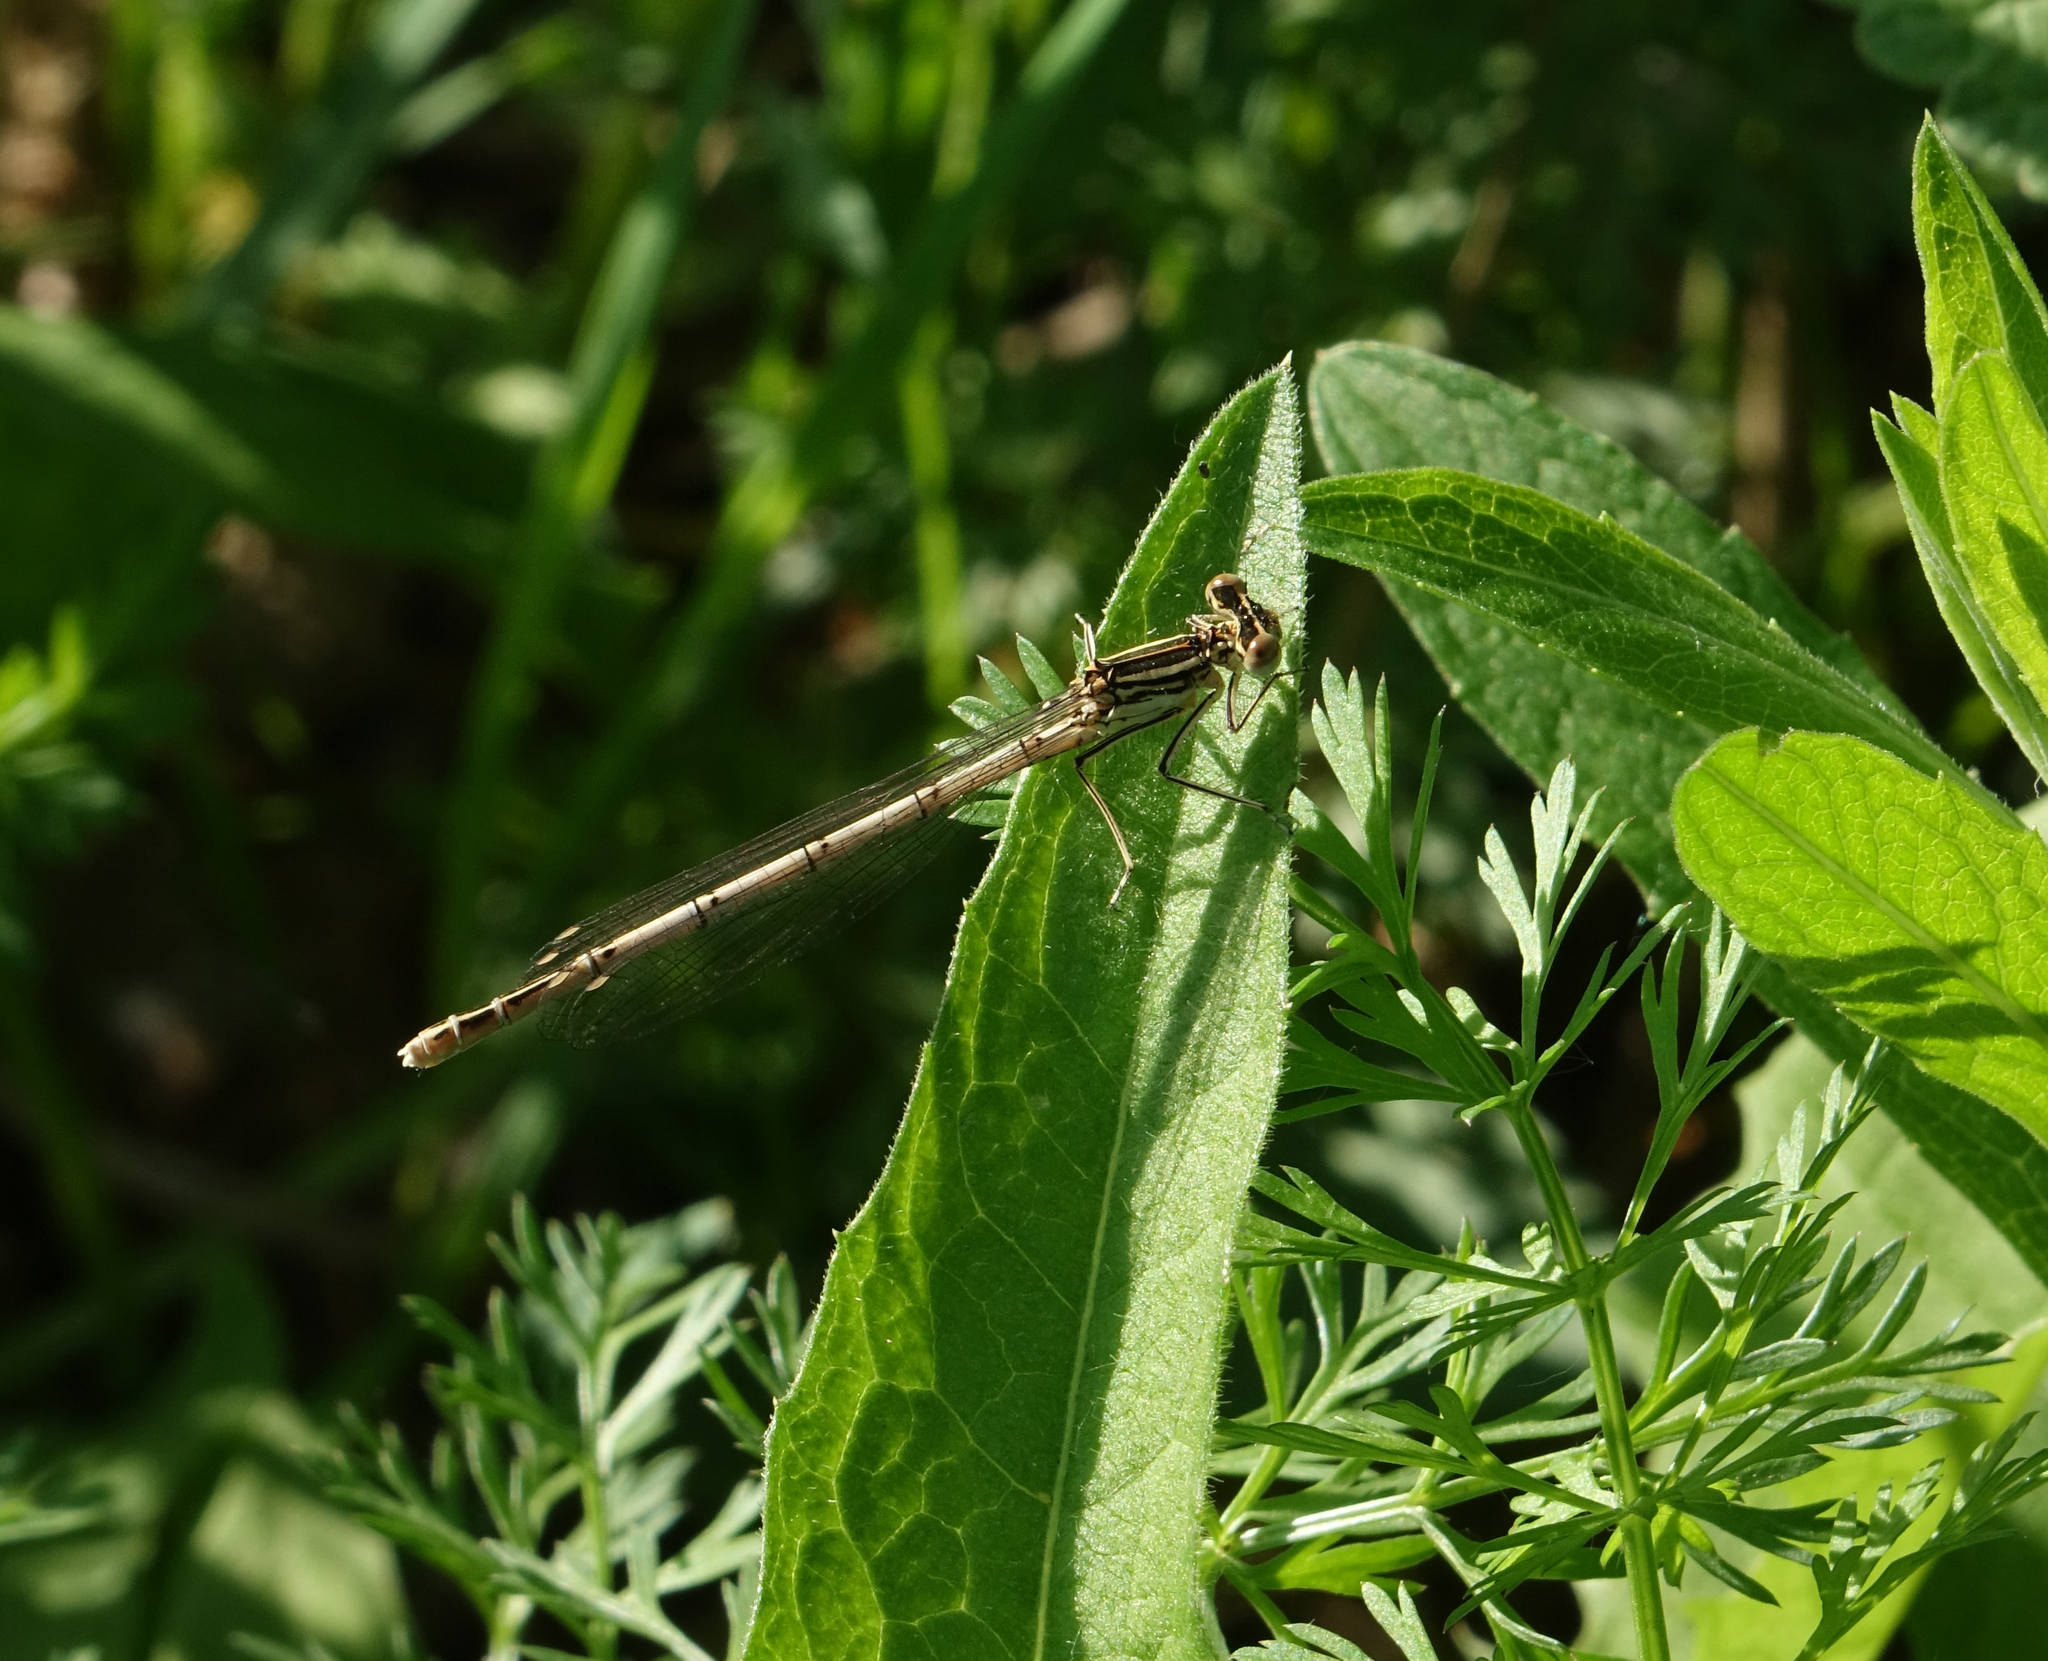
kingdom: Animalia
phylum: Arthropoda
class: Insecta
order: Odonata
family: Platycnemididae
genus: Platycnemis
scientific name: Platycnemis pennipes
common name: White-legged damselfly
